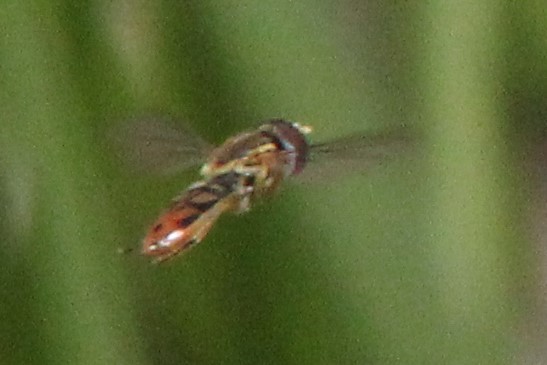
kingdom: Animalia
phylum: Arthropoda
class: Insecta
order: Diptera
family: Syrphidae
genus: Toxomerus
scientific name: Toxomerus marginatus
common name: Syrphid fly
